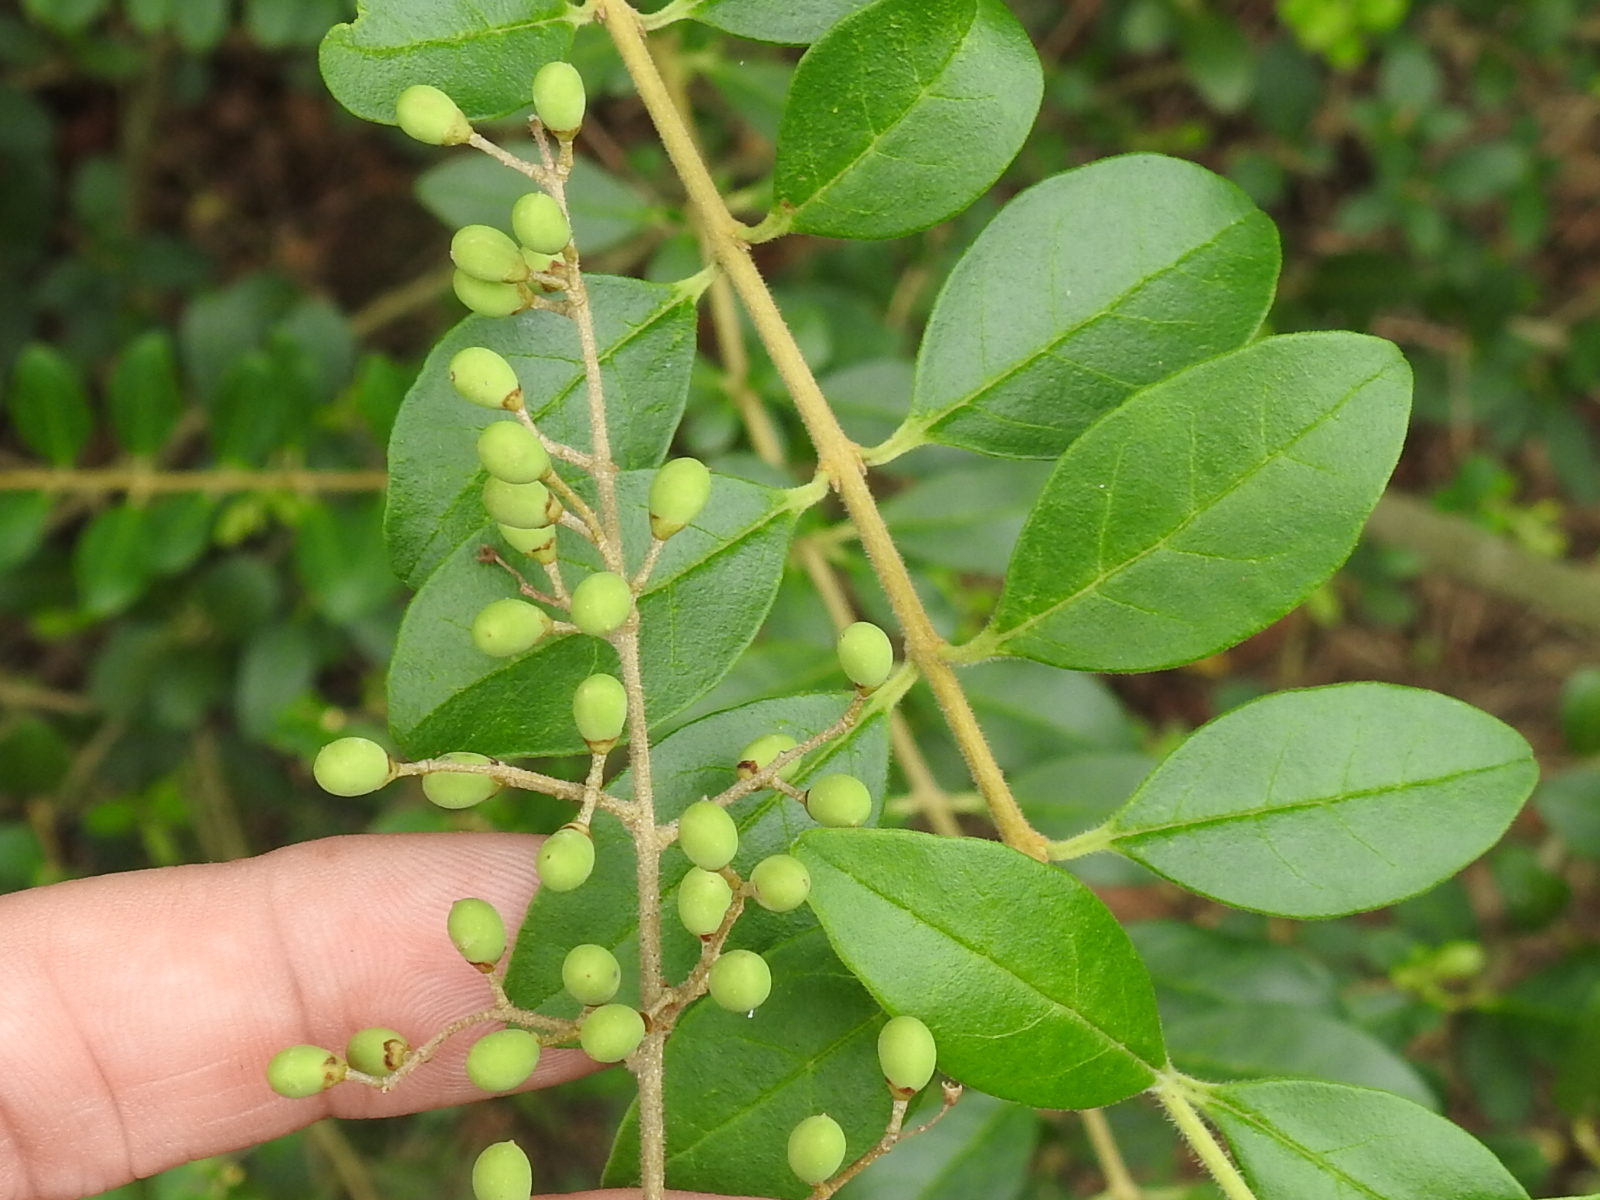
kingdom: Plantae
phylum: Tracheophyta
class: Magnoliopsida
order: Lamiales
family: Oleaceae
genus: Ligustrum
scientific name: Ligustrum sinense
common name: Chinese privet
